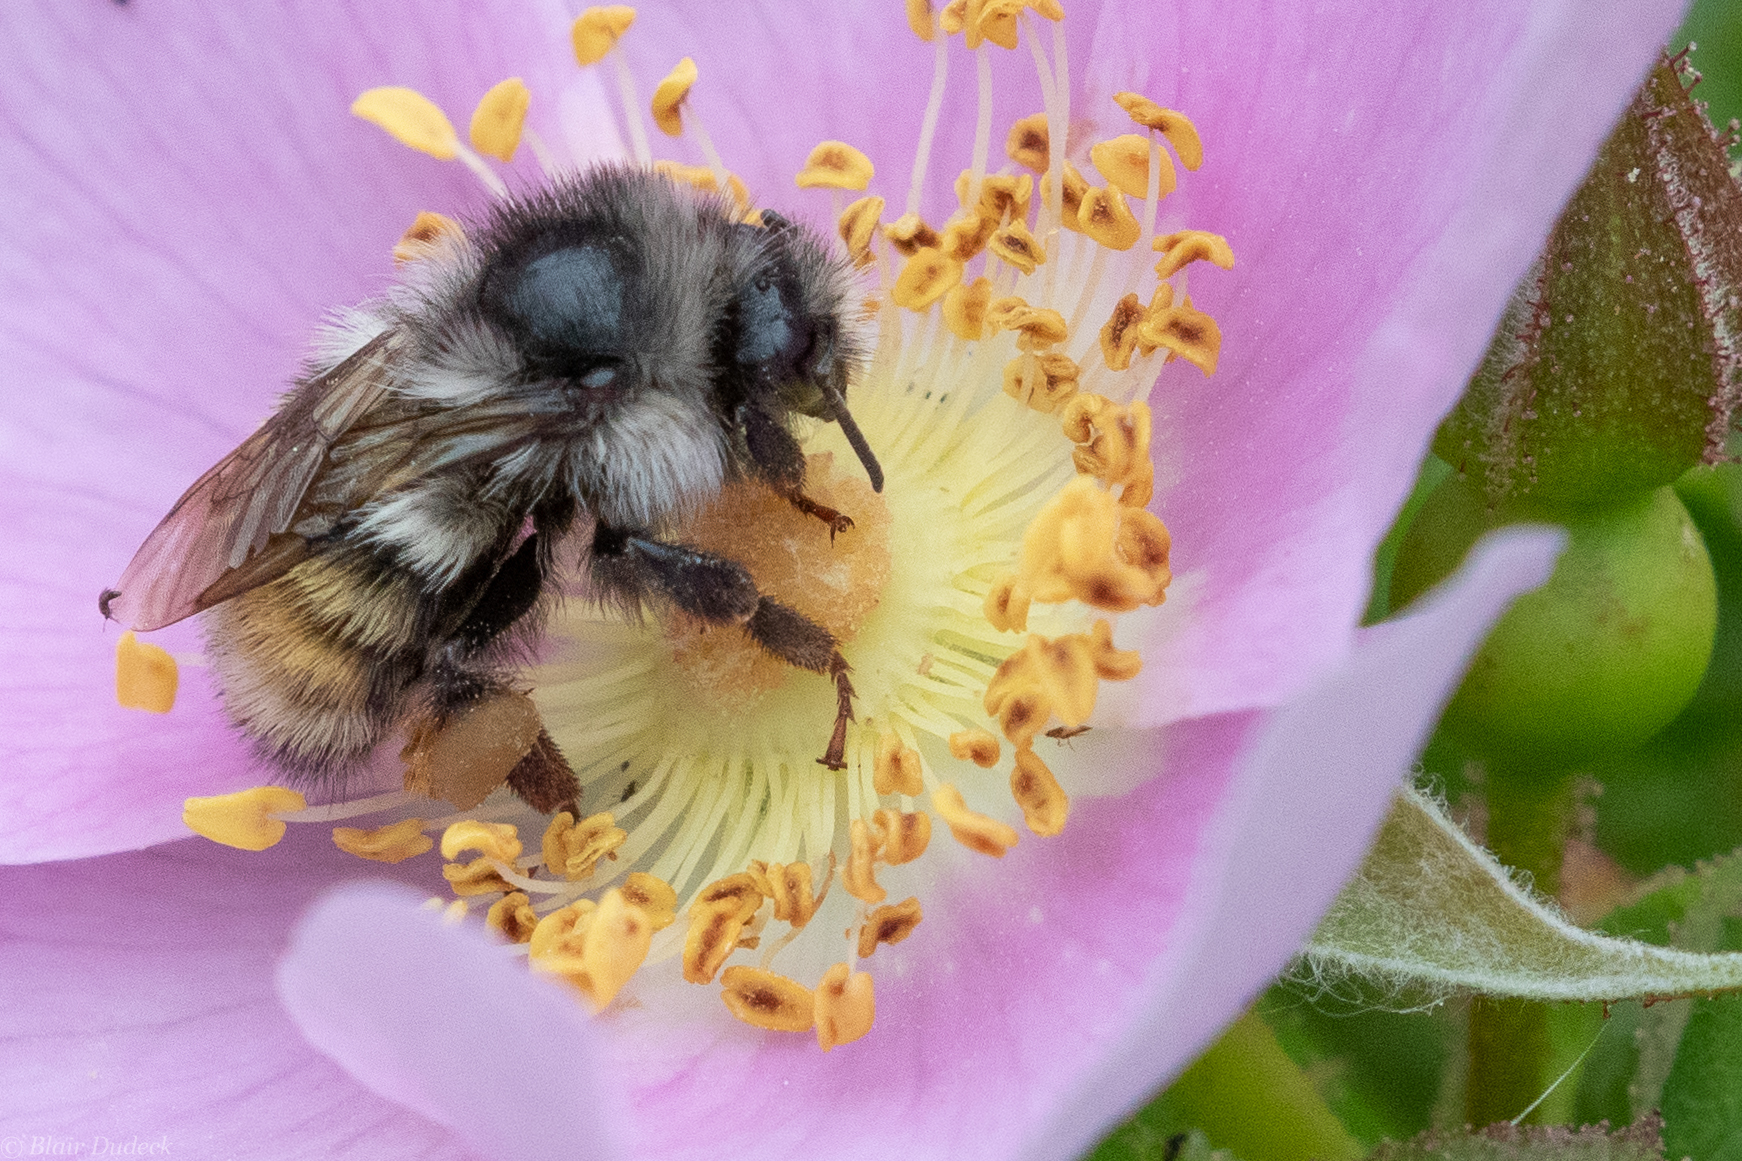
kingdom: Animalia
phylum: Arthropoda
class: Insecta
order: Hymenoptera
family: Apidae
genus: Bombus
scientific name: Bombus vancouverensis
